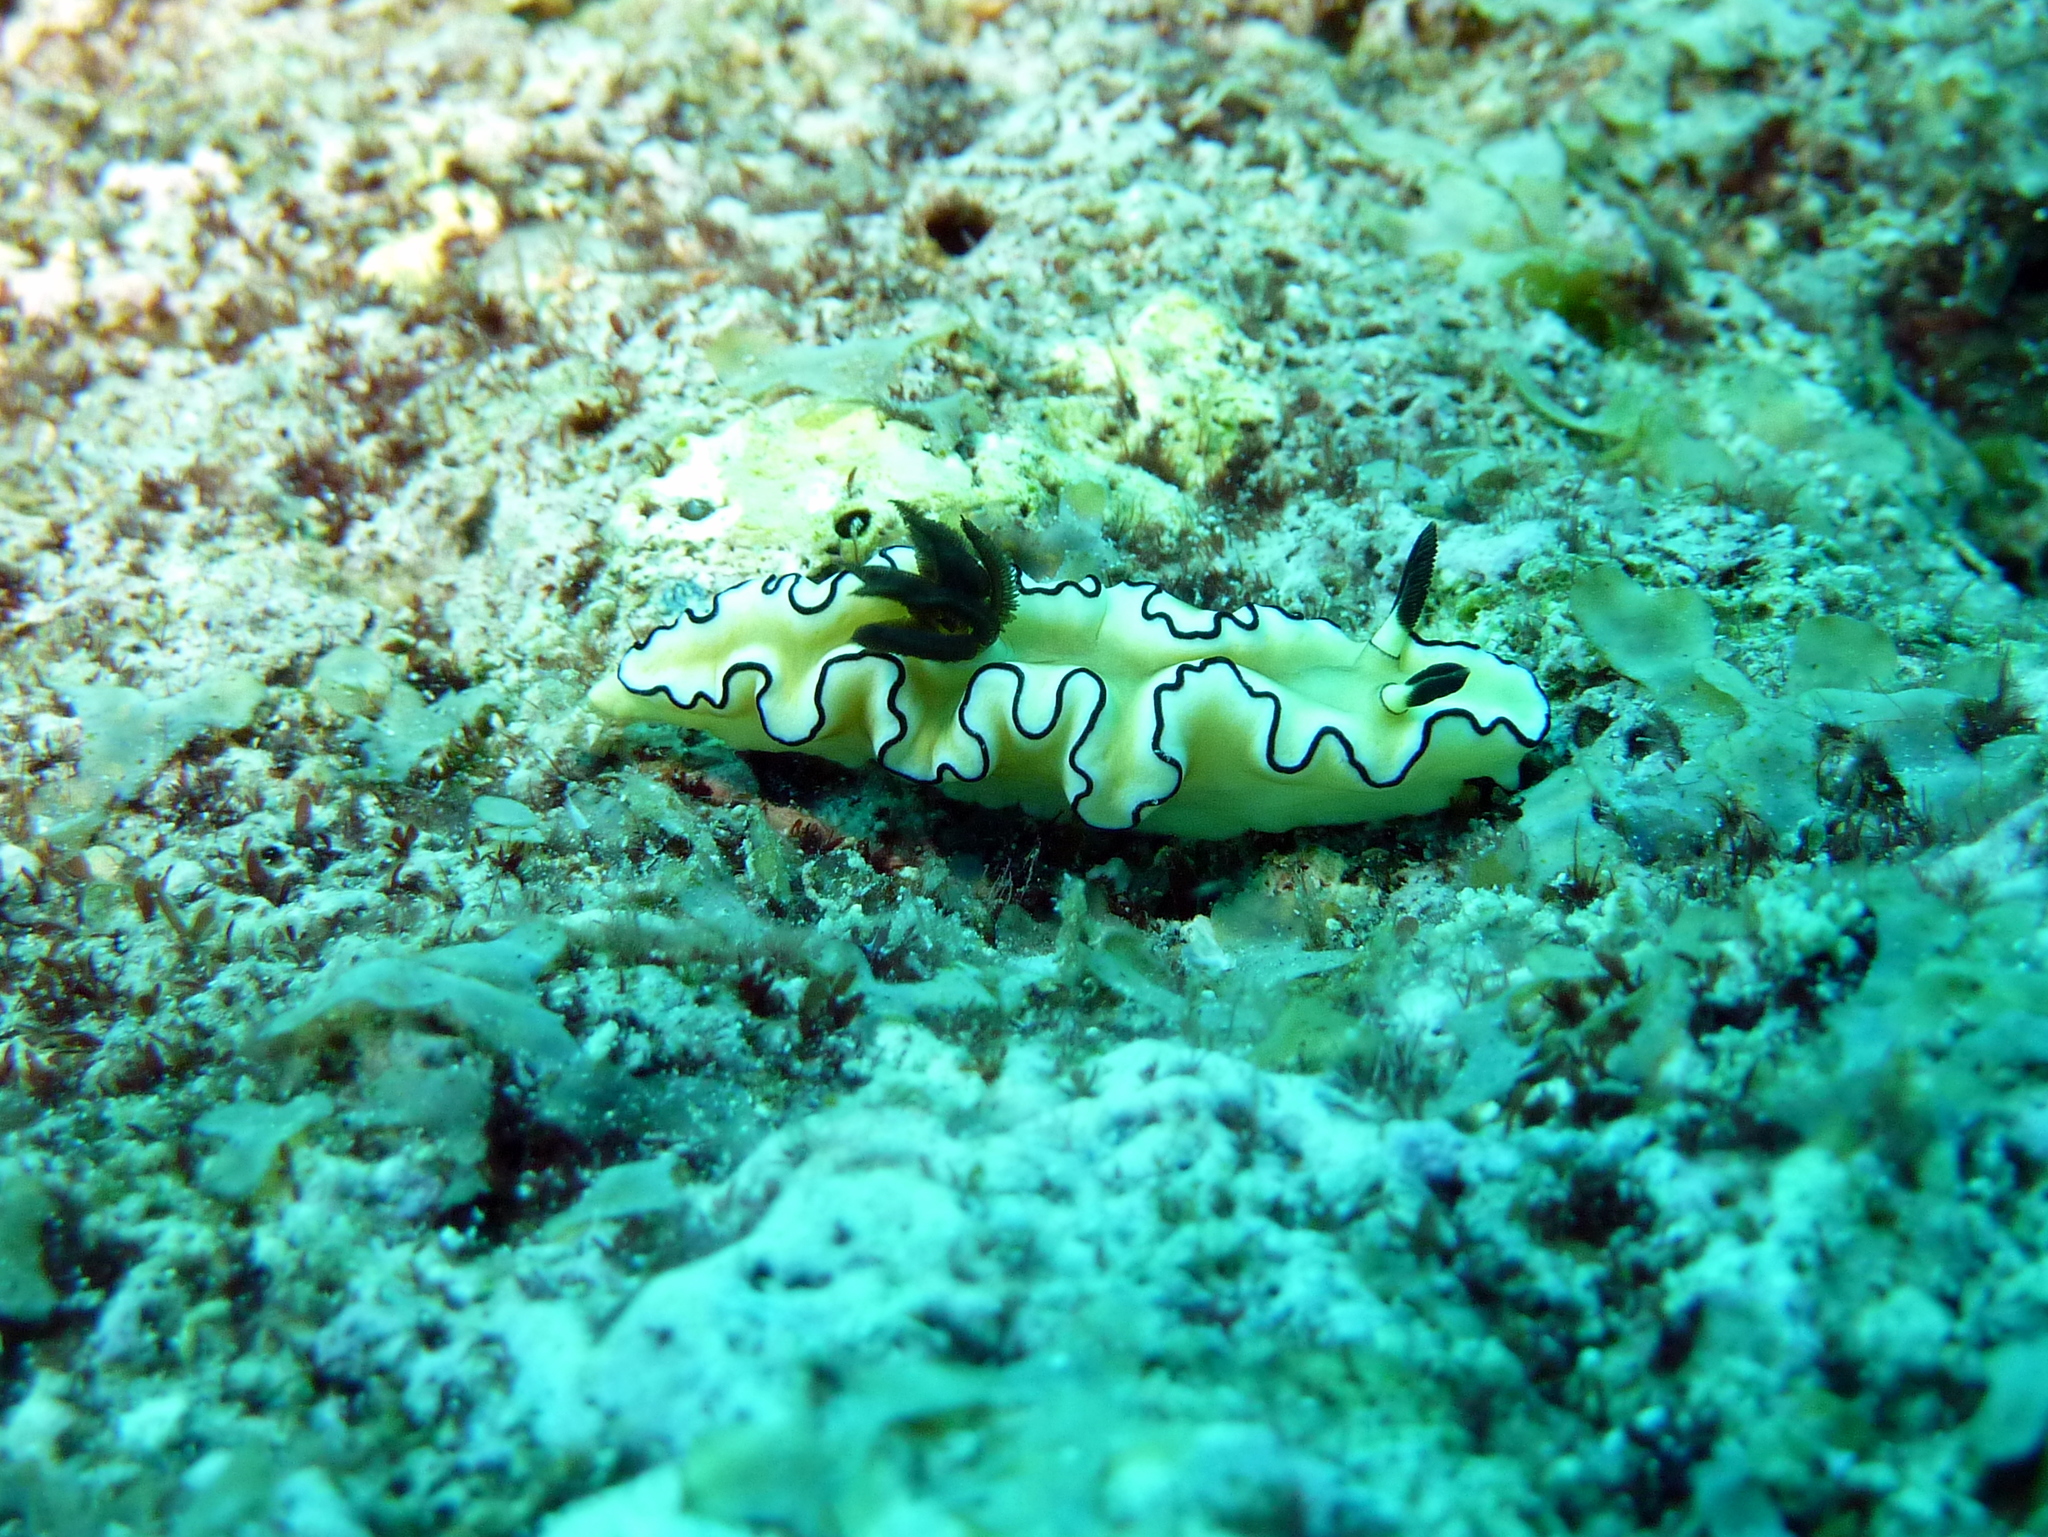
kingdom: Animalia
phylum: Mollusca
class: Gastropoda
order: Nudibranchia
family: Chromodorididae
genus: Doriprismatica
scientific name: Doriprismatica atromarginata
